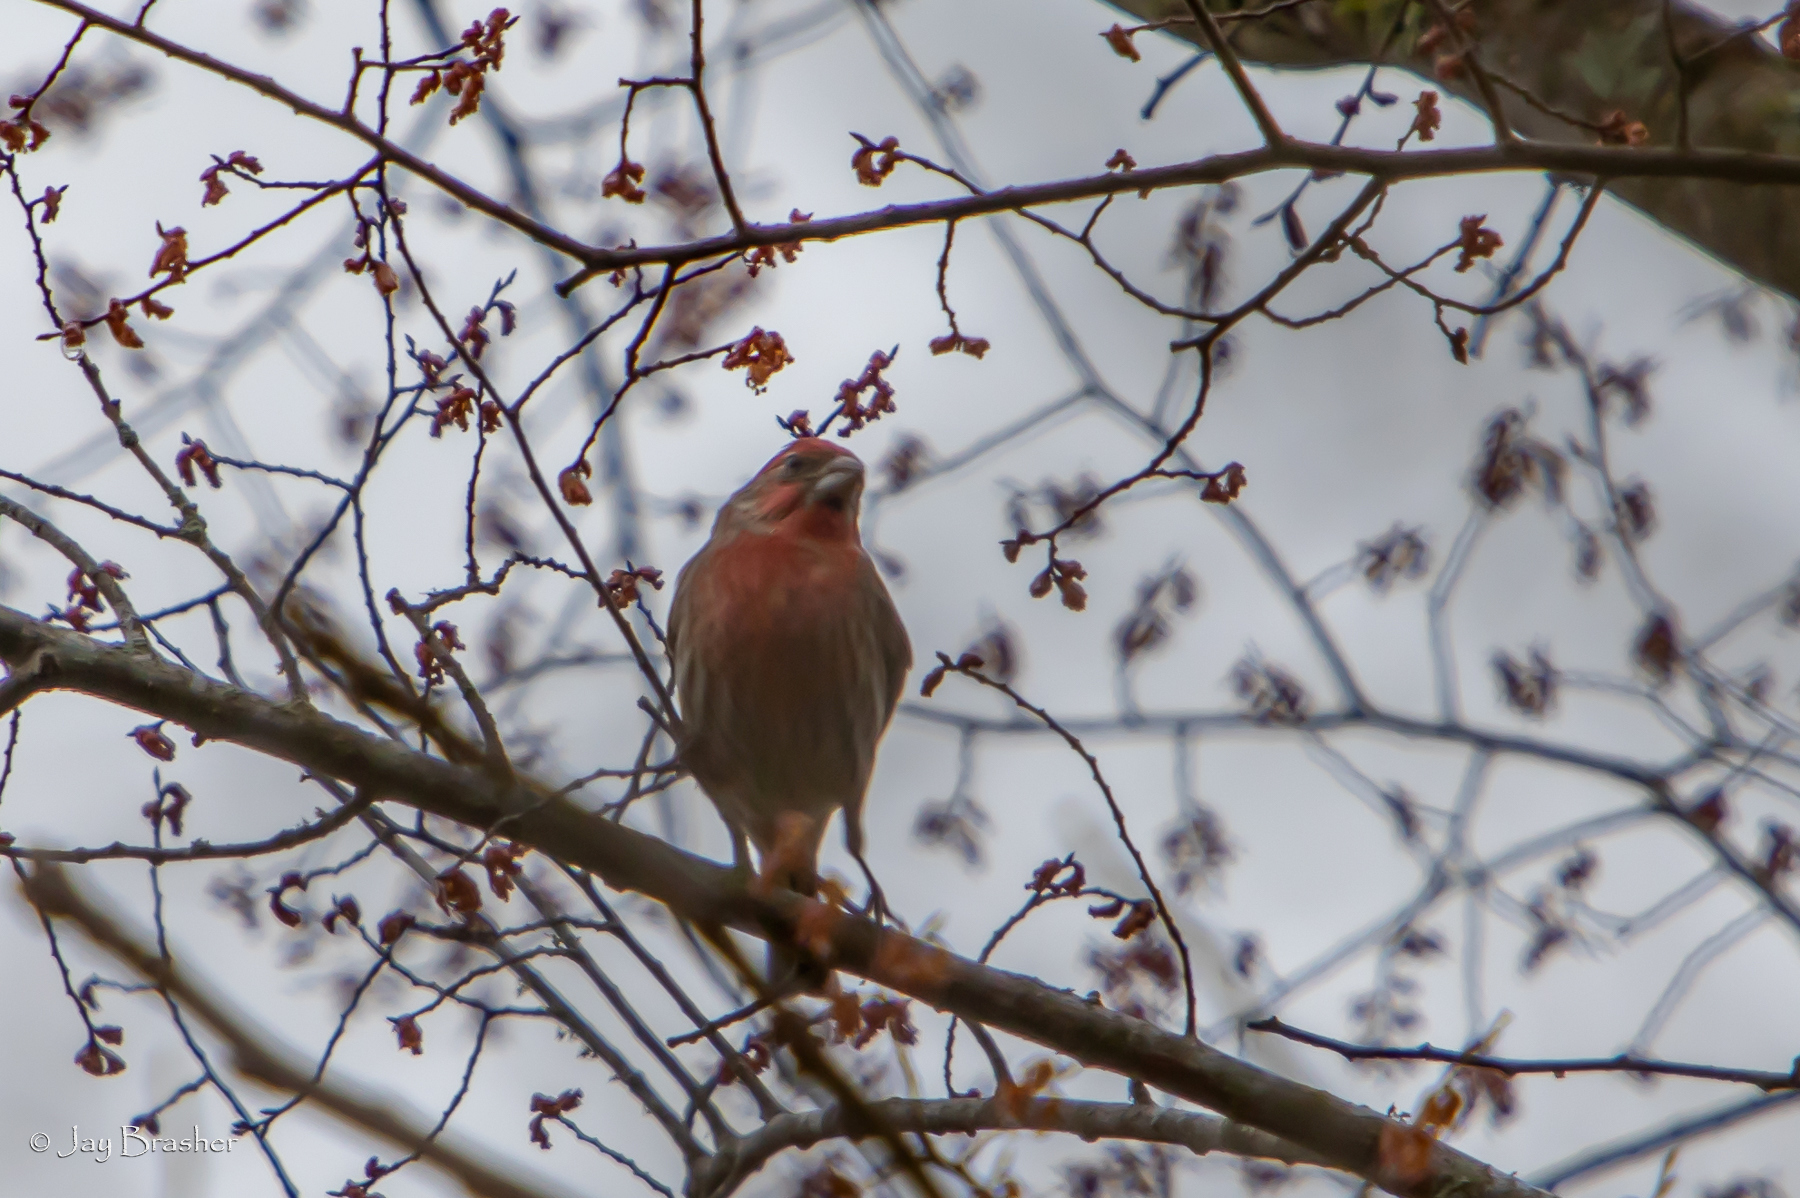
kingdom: Animalia
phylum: Chordata
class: Aves
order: Passeriformes
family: Fringillidae
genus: Haemorhous
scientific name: Haemorhous mexicanus
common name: House finch
